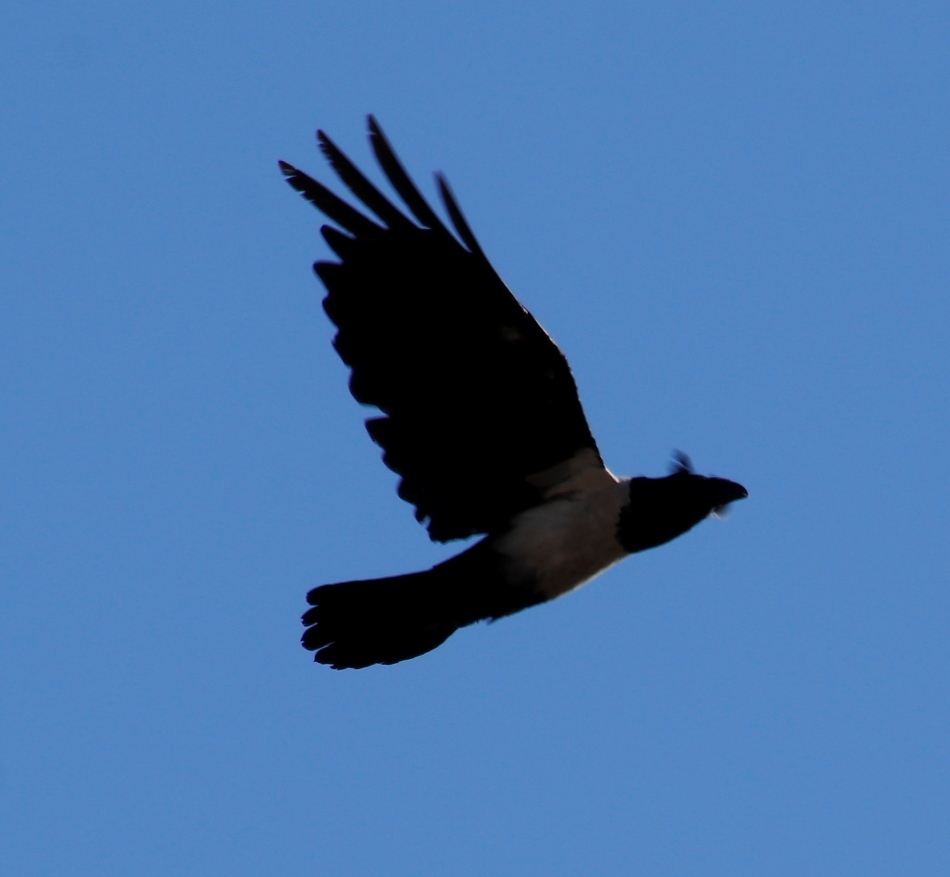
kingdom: Animalia
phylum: Chordata
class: Aves
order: Passeriformes
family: Corvidae
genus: Corvus
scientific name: Corvus albus
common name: Pied crow
